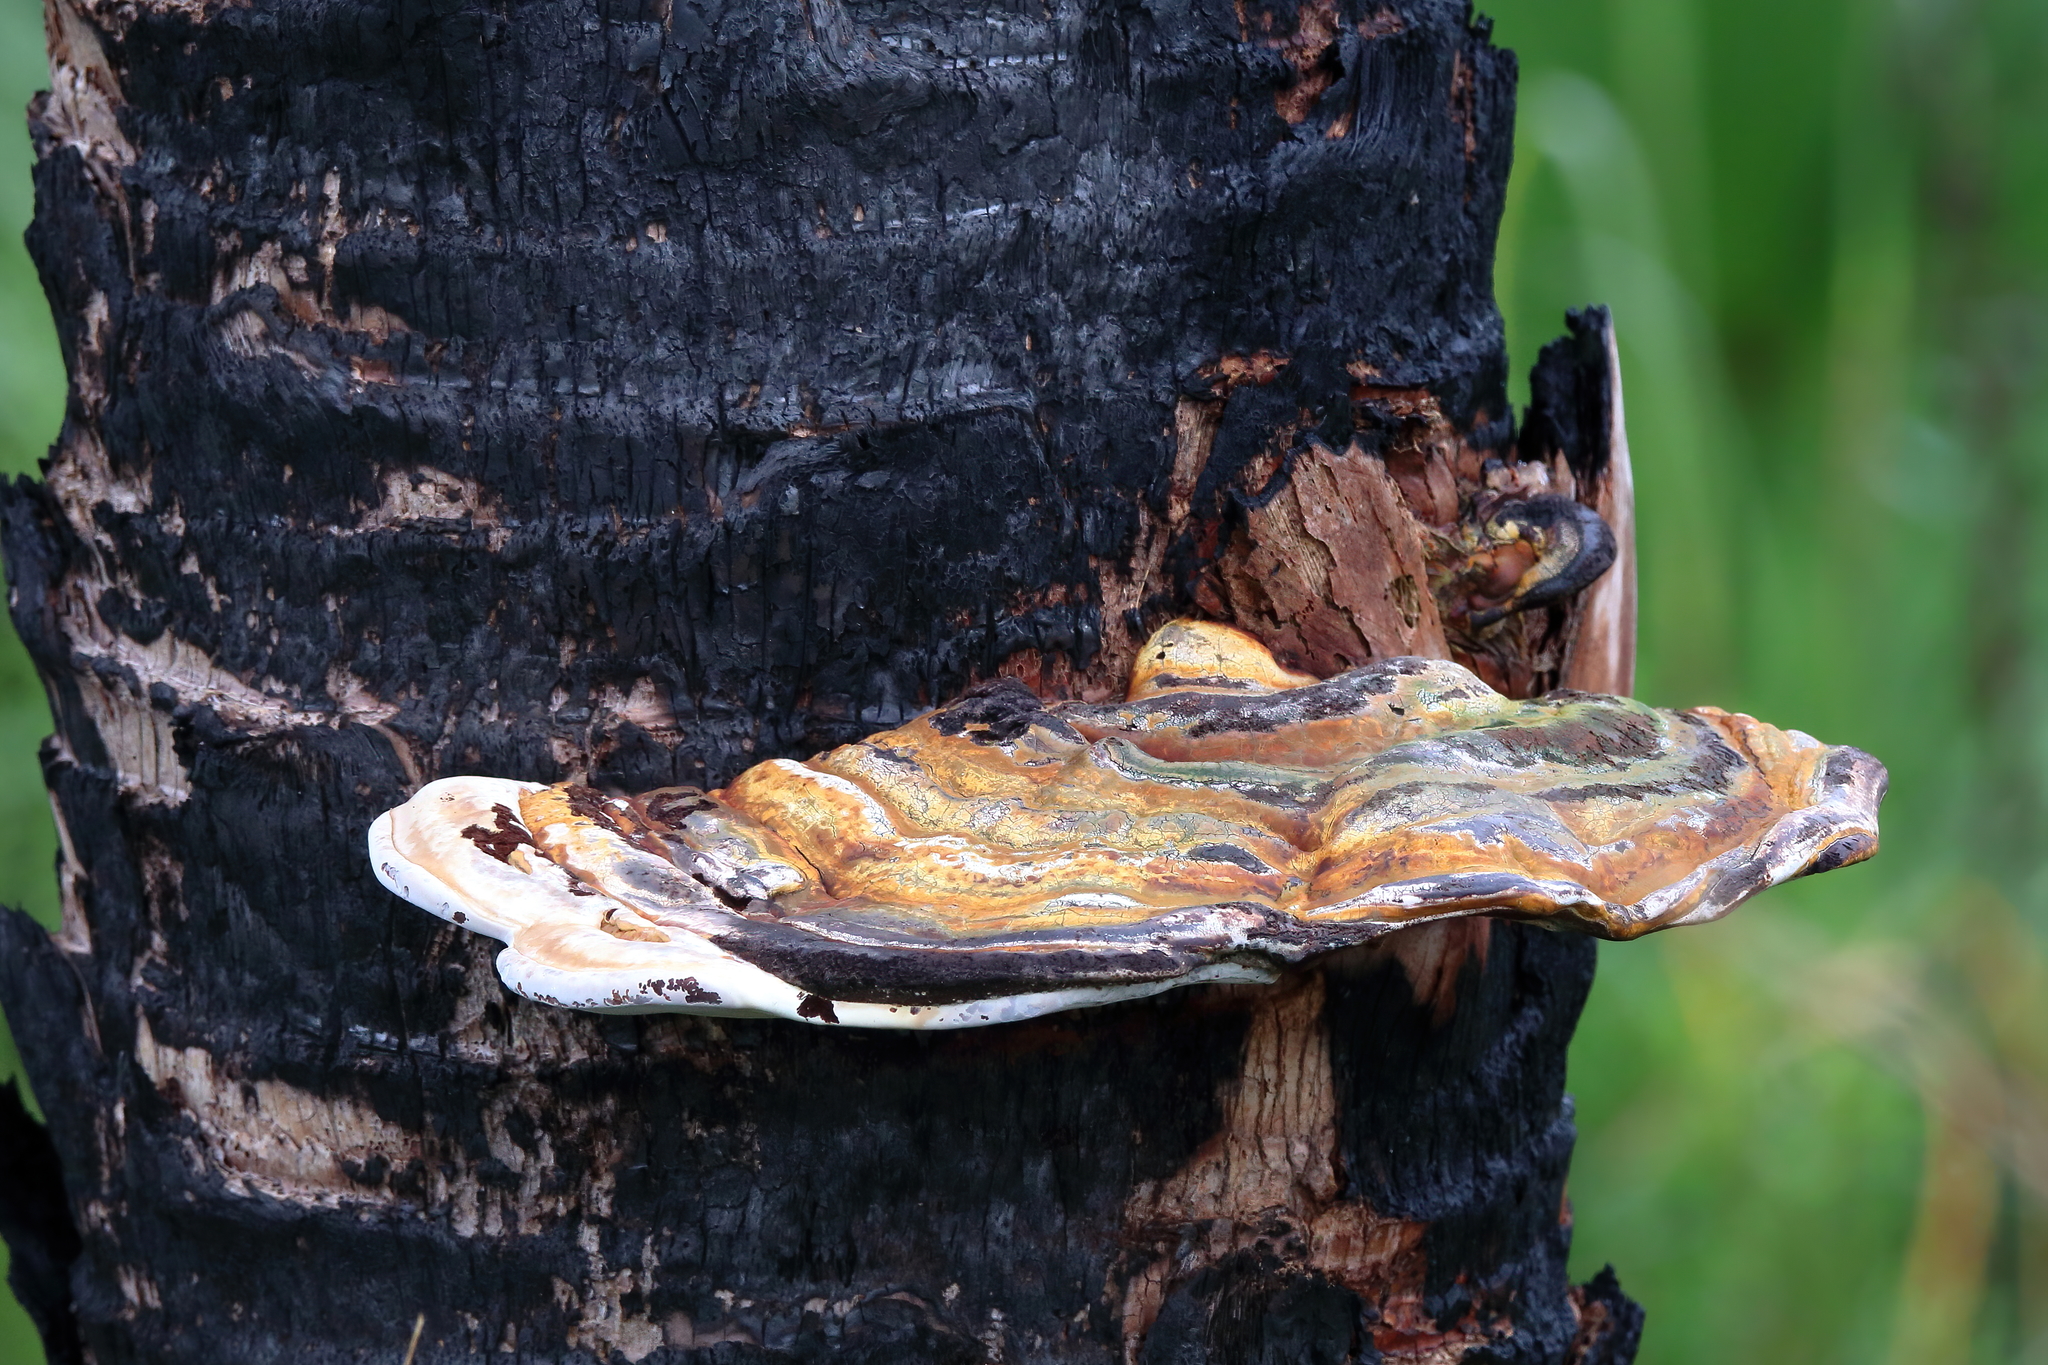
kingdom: Fungi
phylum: Basidiomycota
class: Agaricomycetes
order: Polyporales
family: Polyporaceae
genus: Ganoderma
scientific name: Ganoderma zonatum
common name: Ganoderma butt rot
